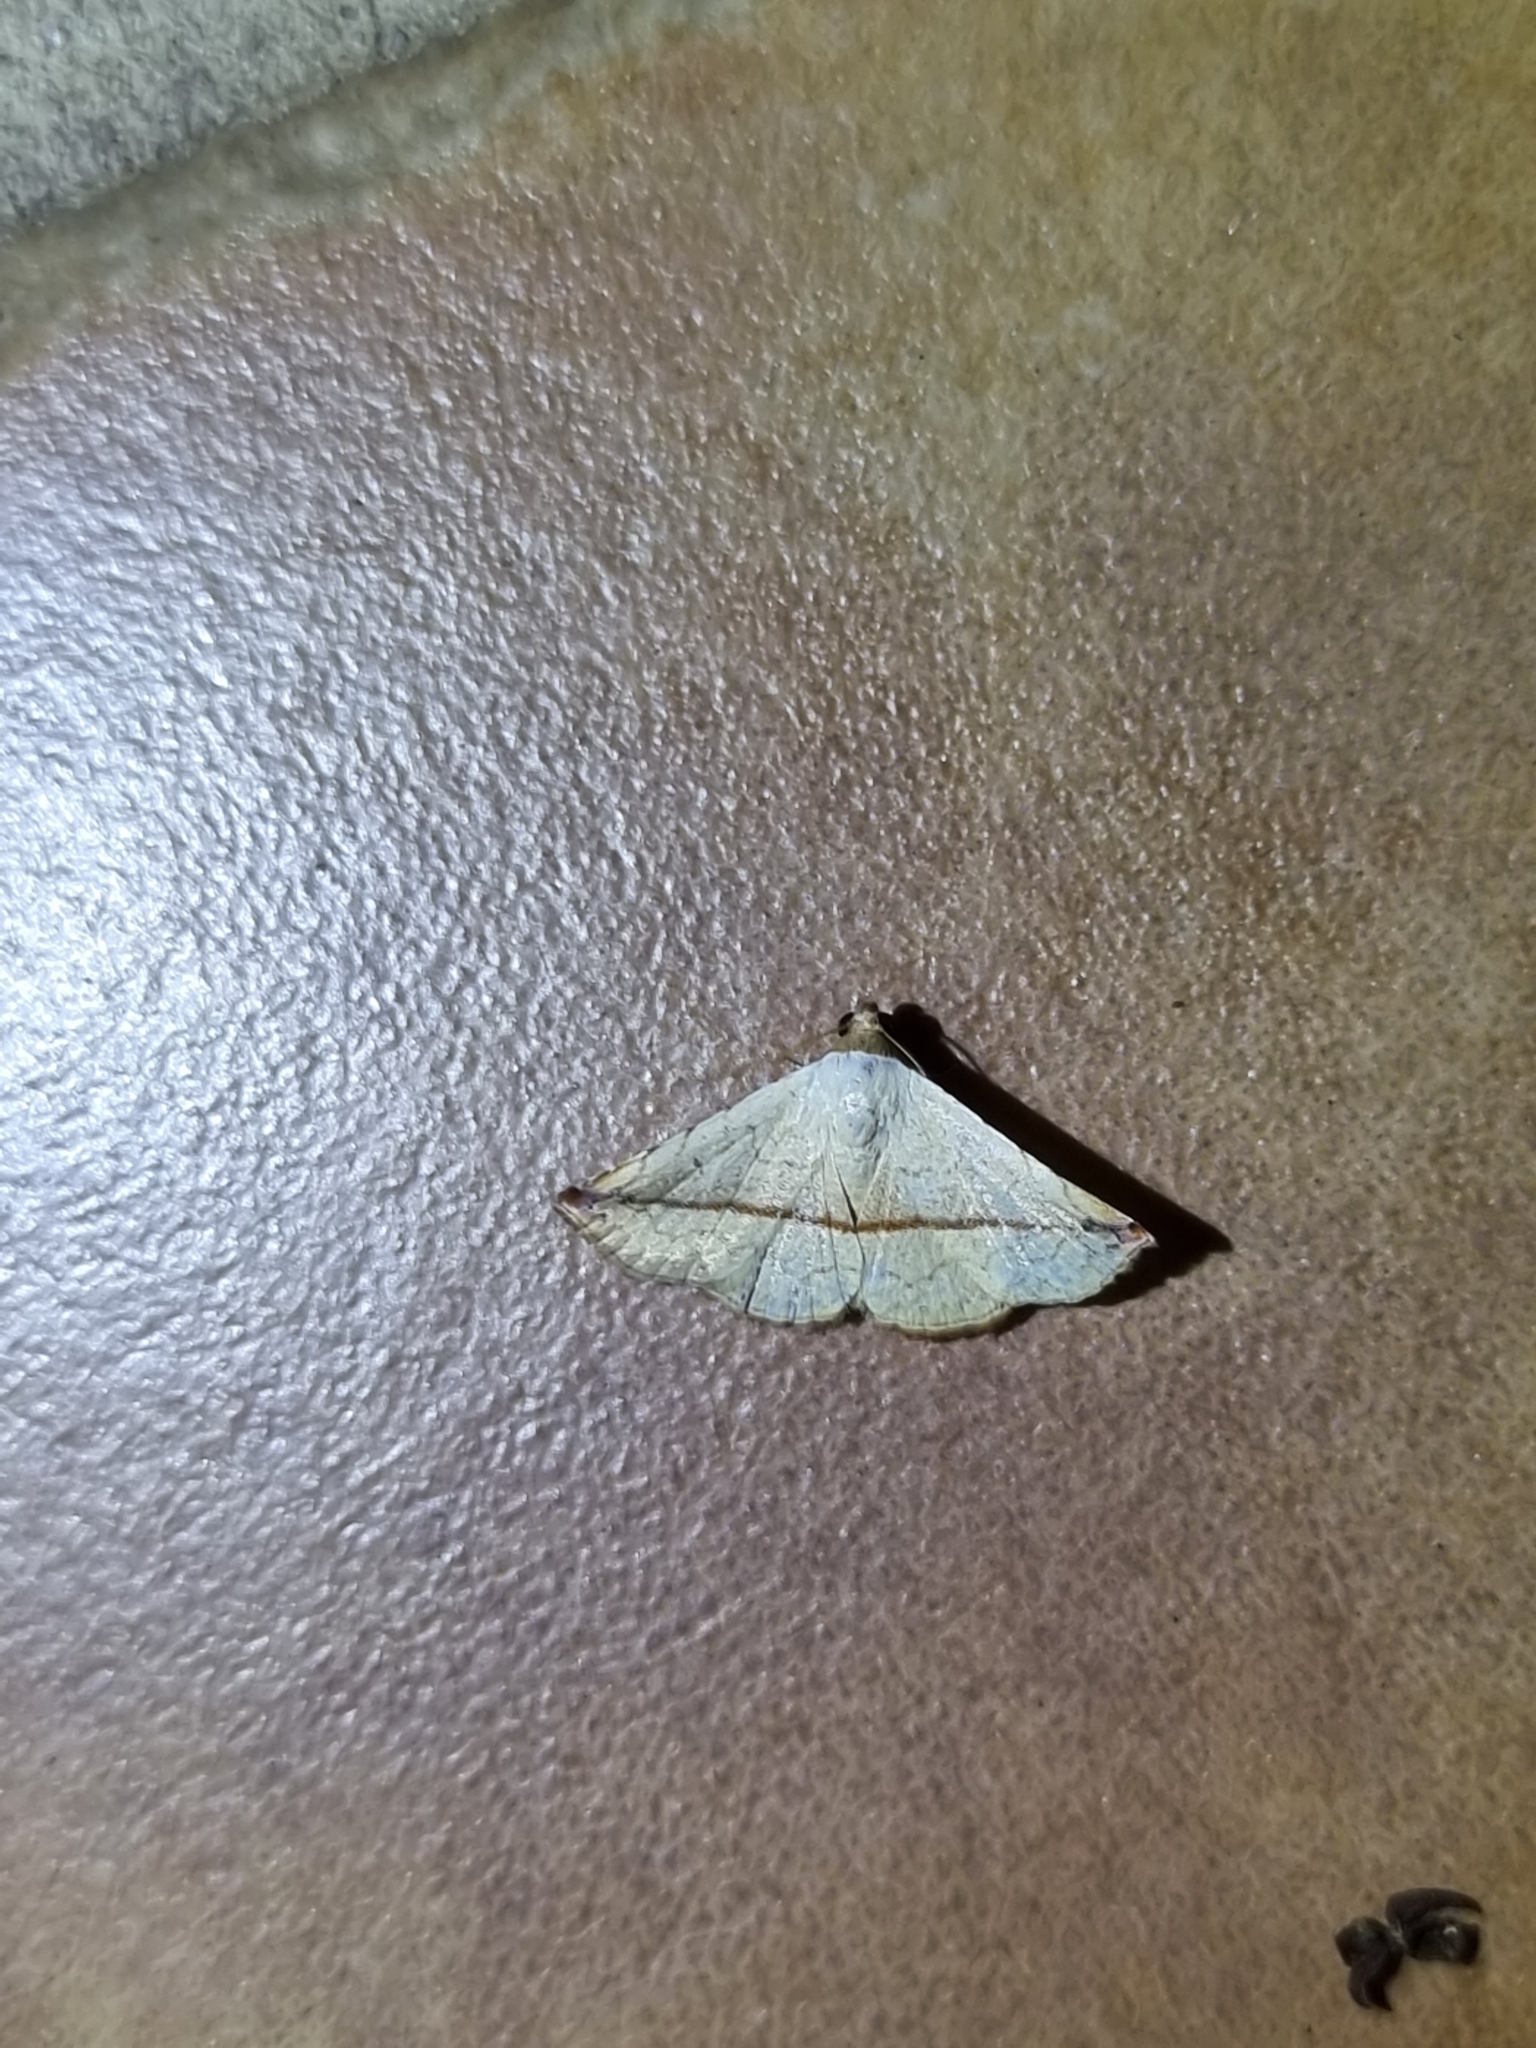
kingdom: Animalia
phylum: Arthropoda
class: Insecta
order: Lepidoptera
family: Noctuidae
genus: Eublemma
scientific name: Eublemma perversicolor
